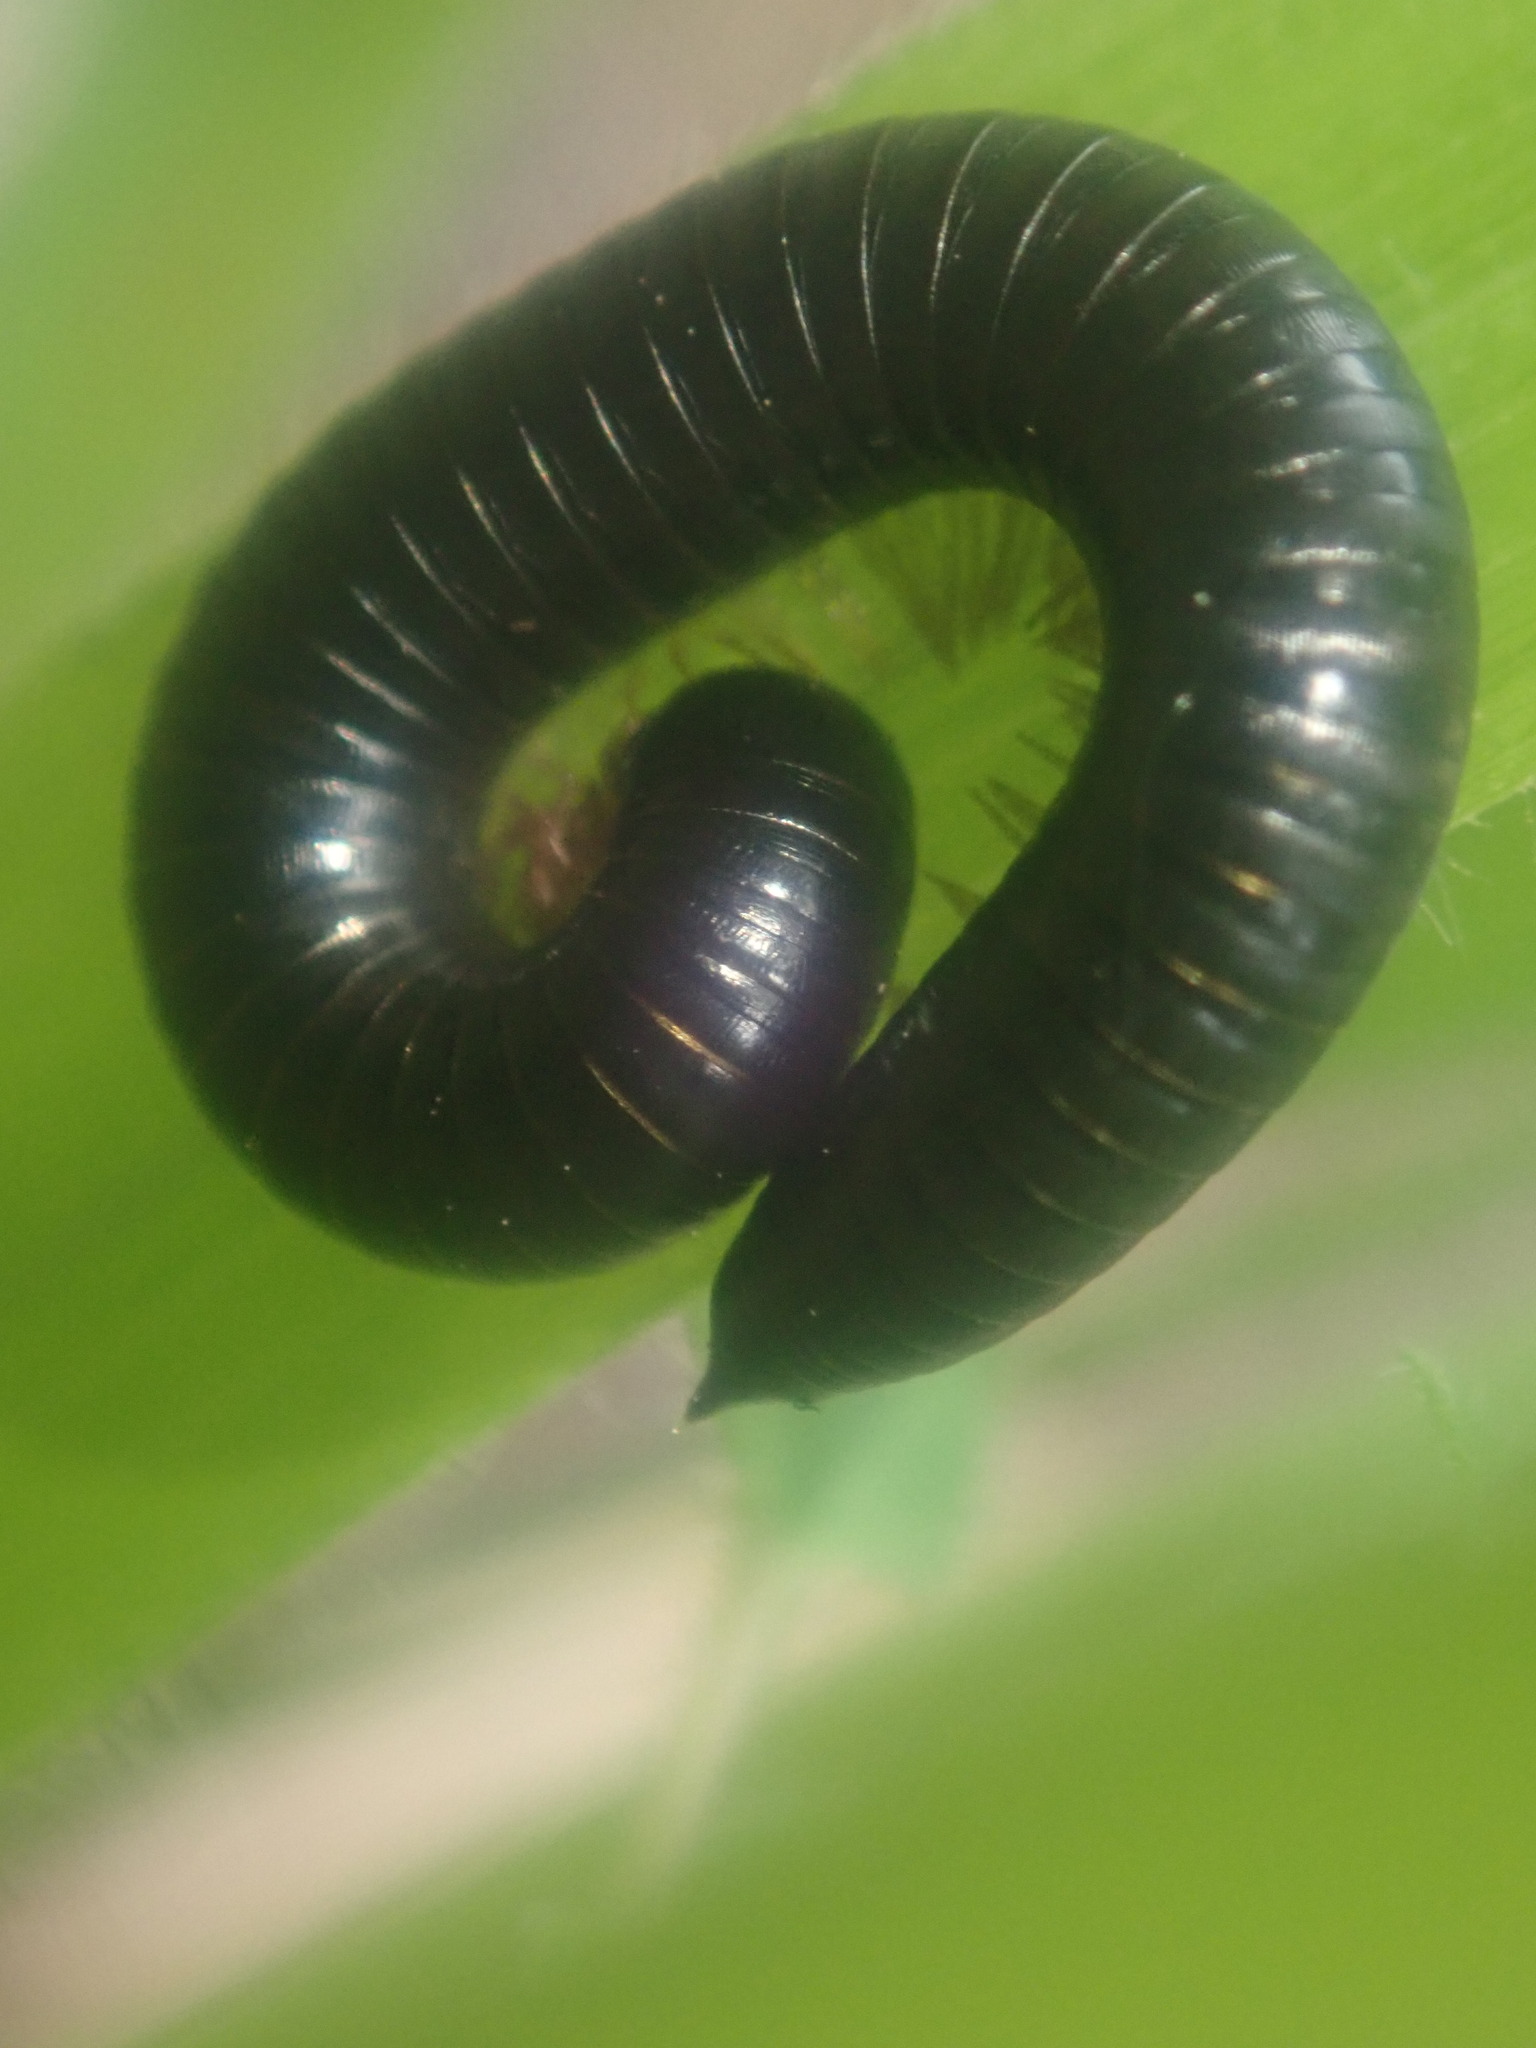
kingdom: Animalia
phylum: Arthropoda
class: Diplopoda
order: Julida
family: Julidae
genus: Ommatoiulus
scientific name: Ommatoiulus moreleti
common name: Portuguese millipede
